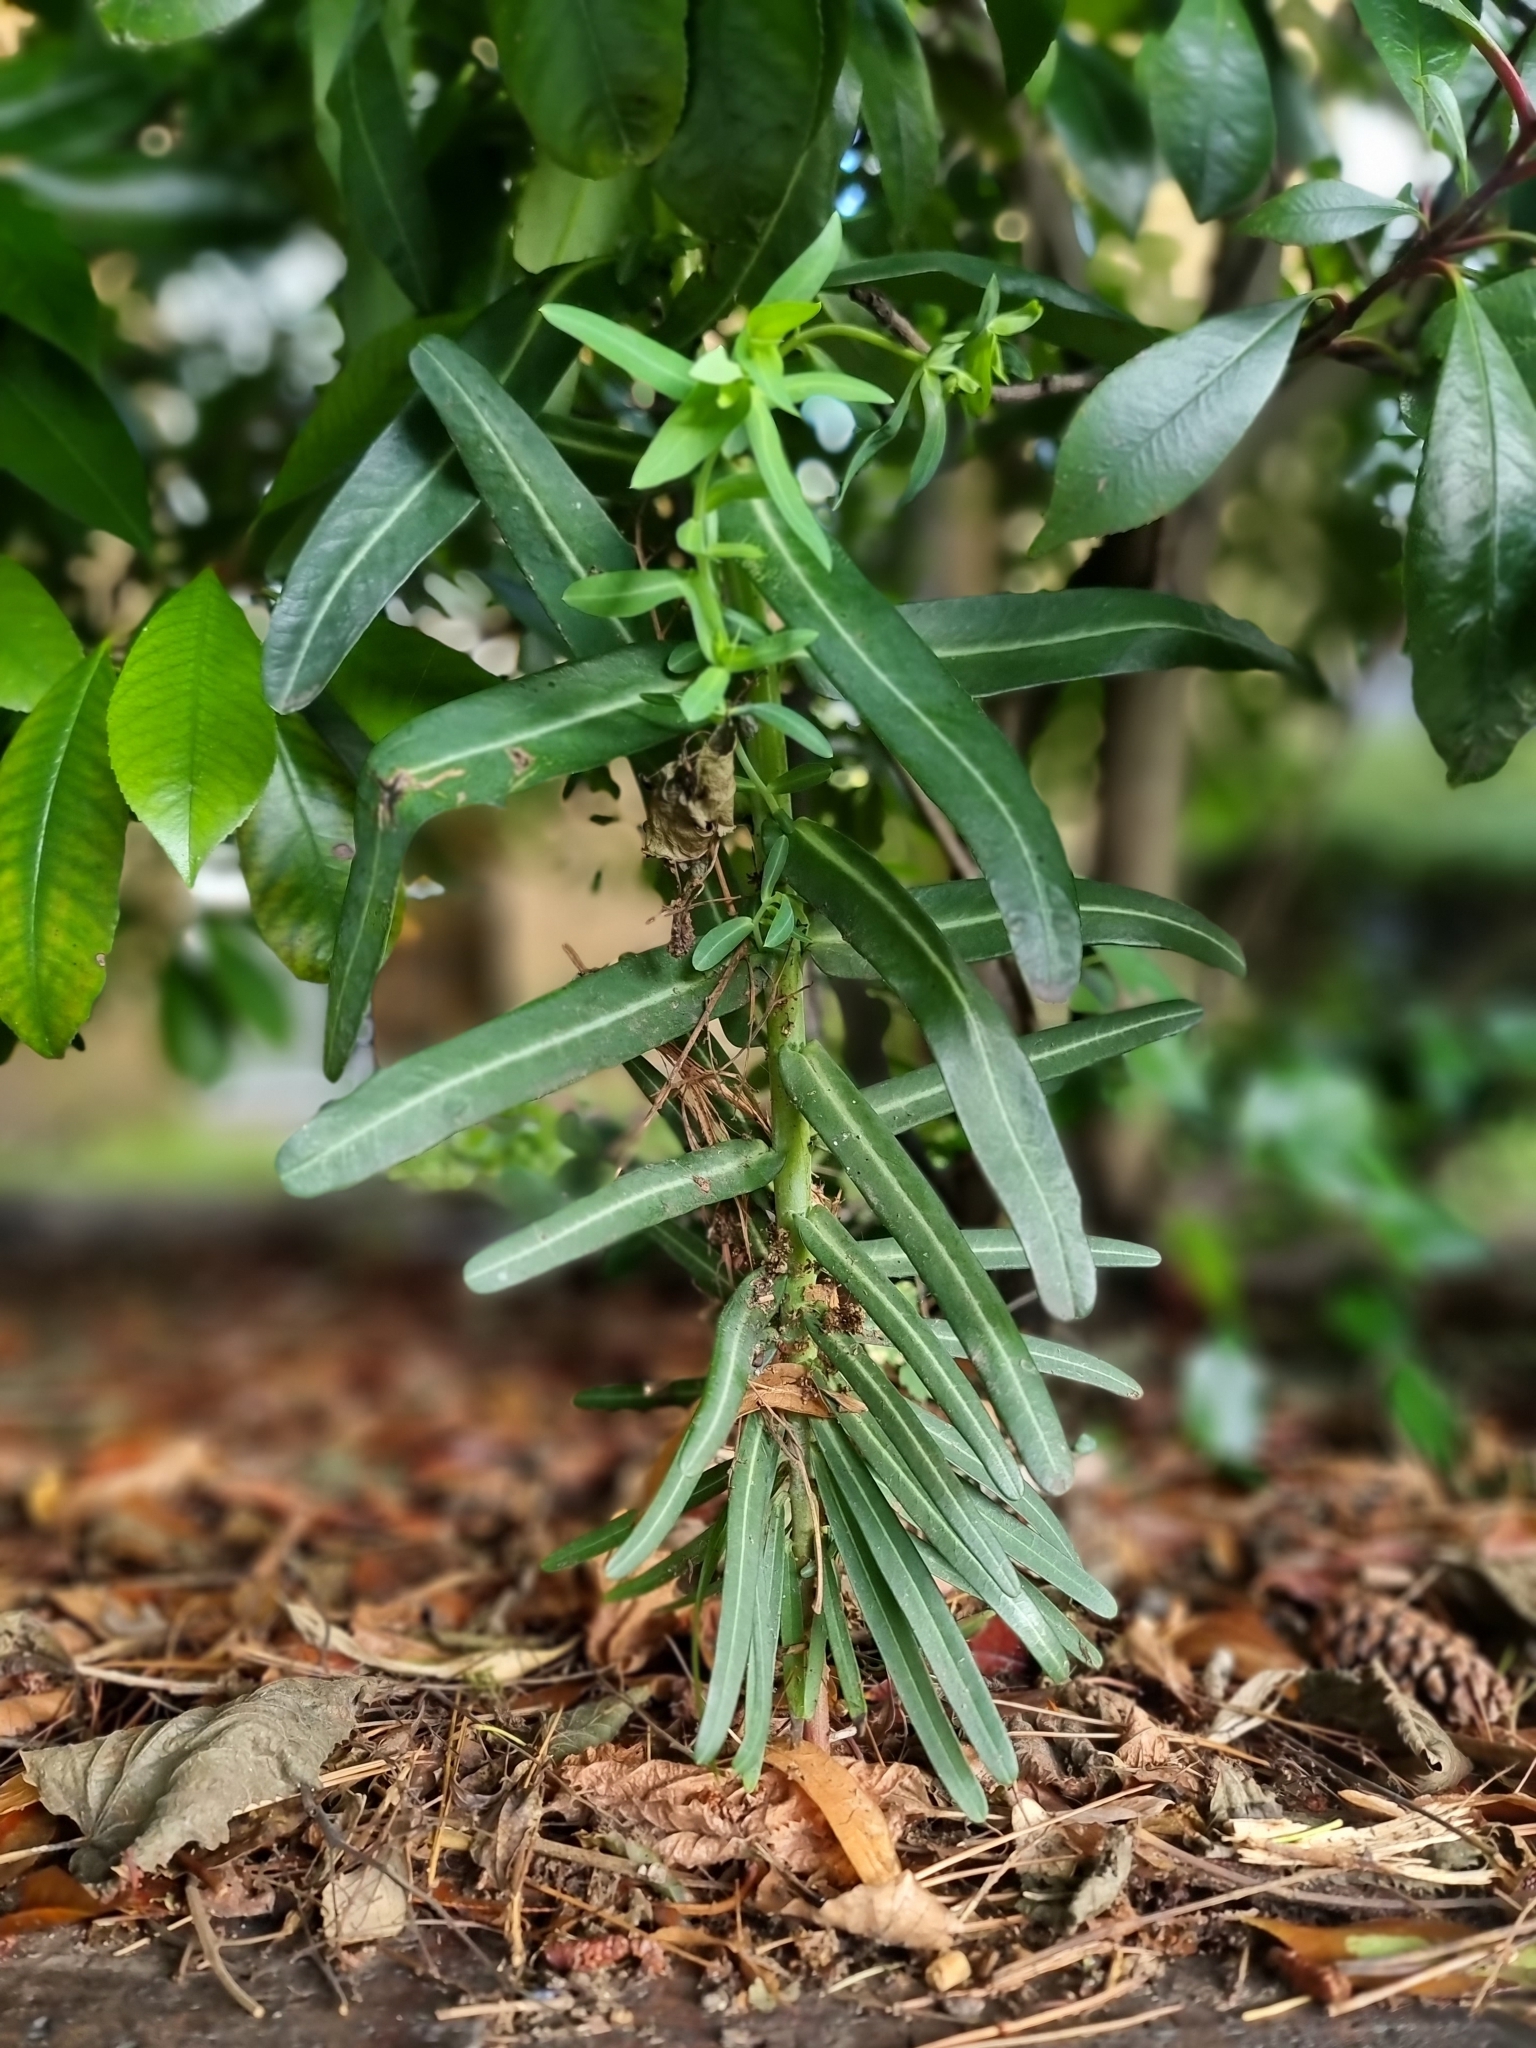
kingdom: Plantae
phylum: Tracheophyta
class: Magnoliopsida
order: Malpighiales
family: Euphorbiaceae
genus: Euphorbia
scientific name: Euphorbia lathyris
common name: Caper spurge
